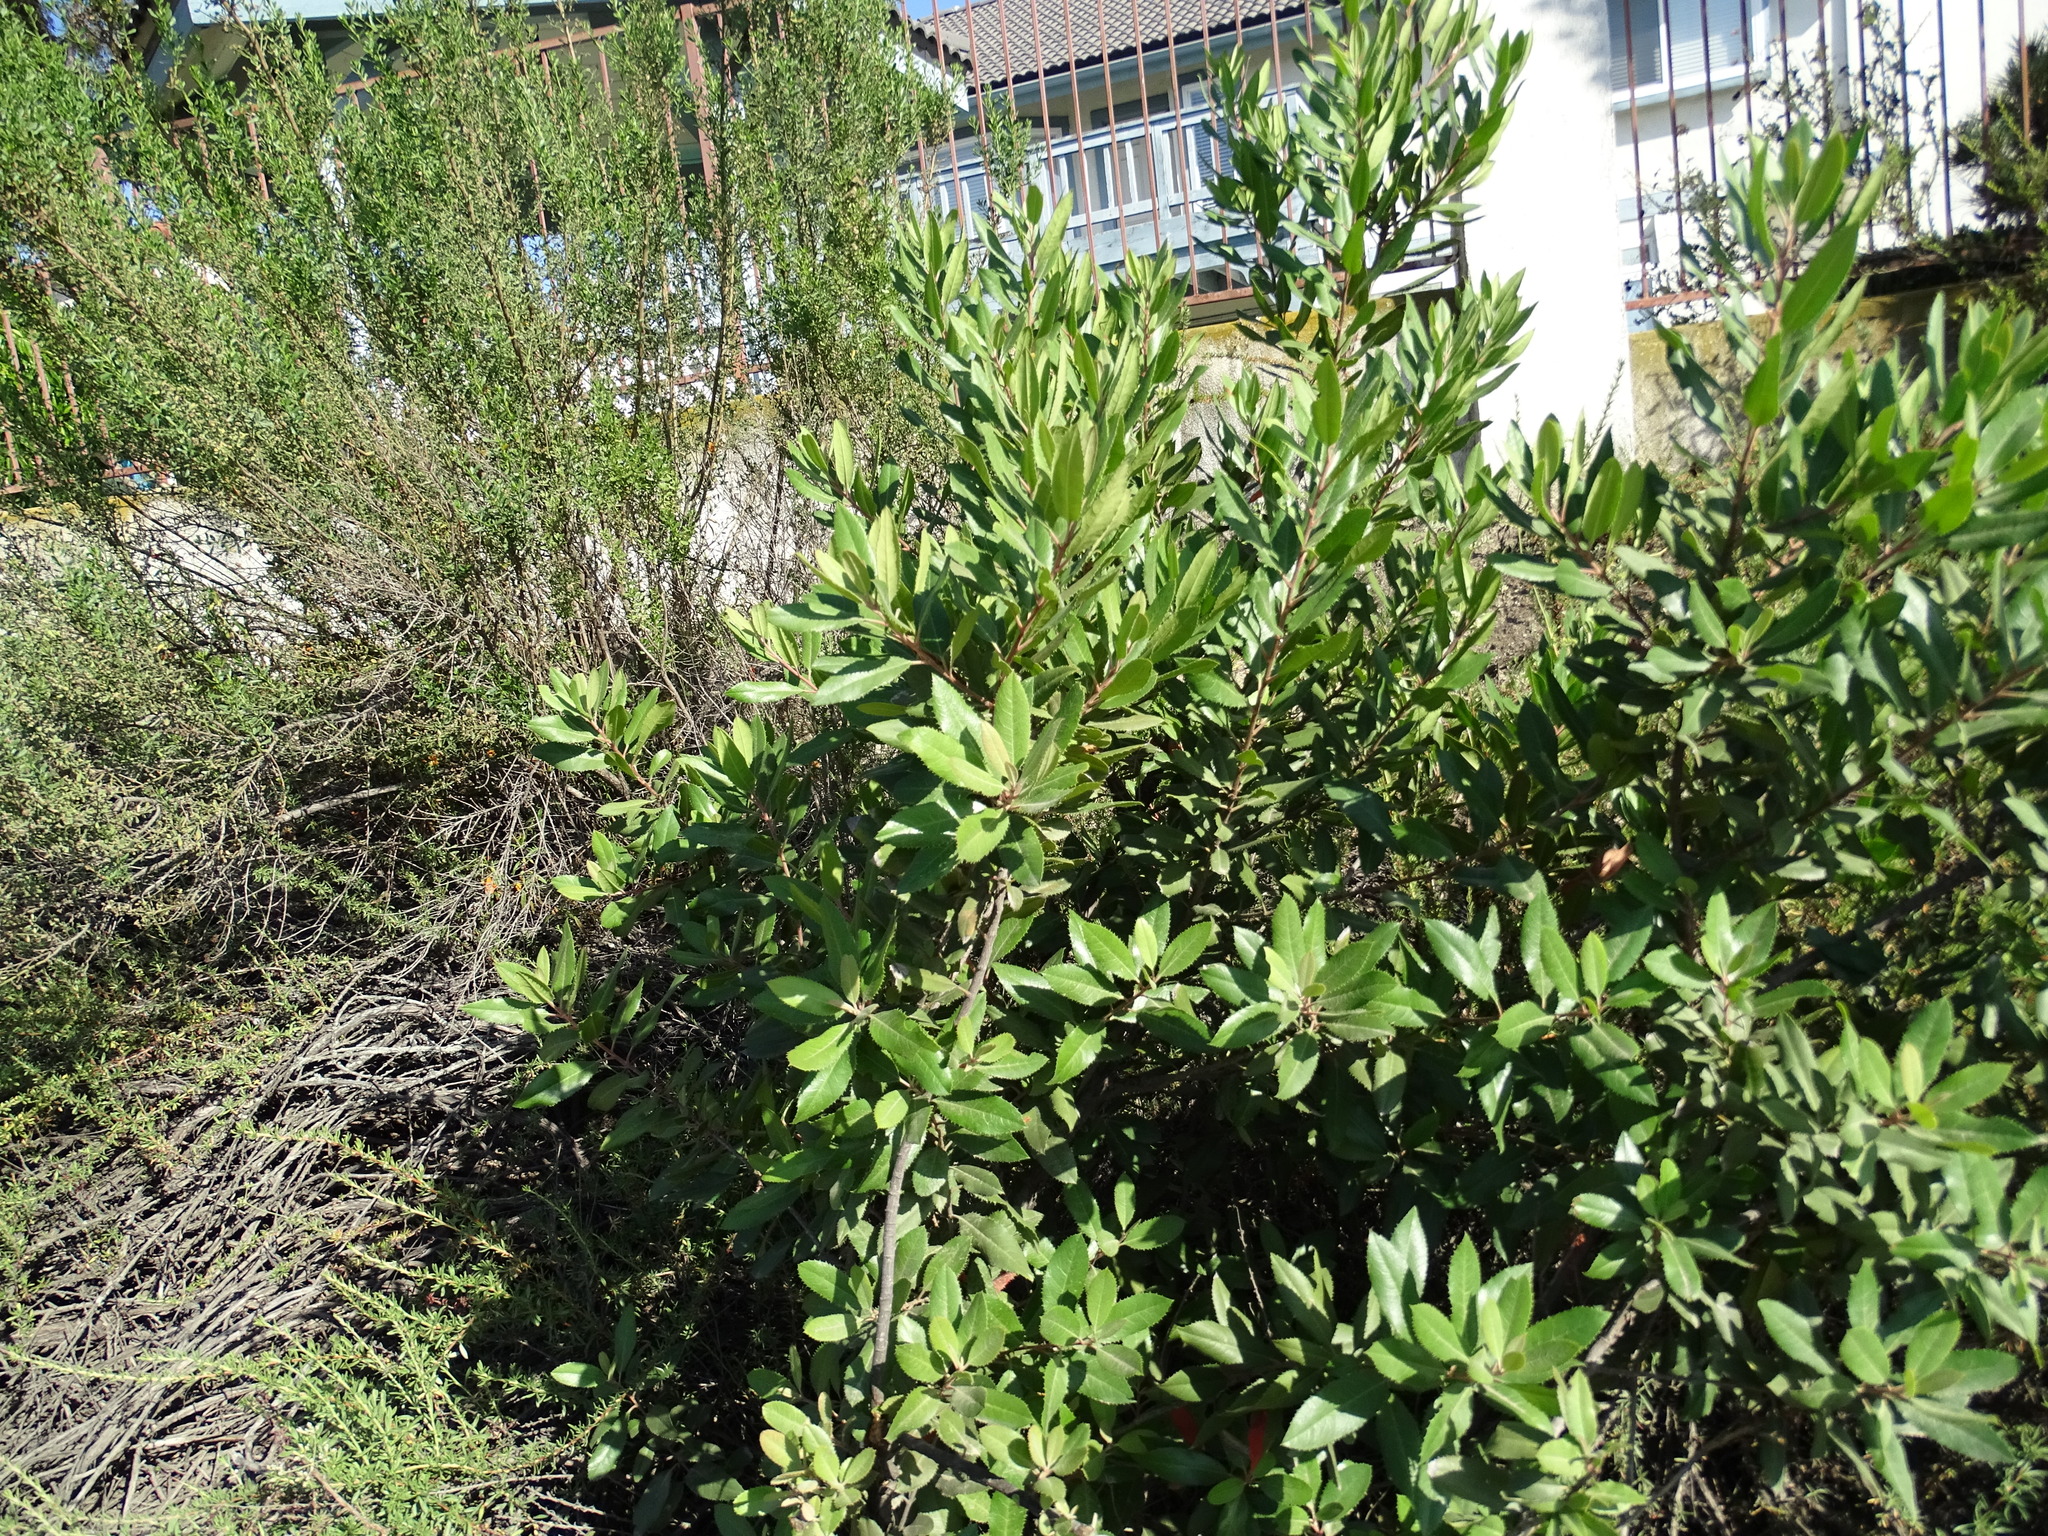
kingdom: Plantae
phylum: Tracheophyta
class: Magnoliopsida
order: Rosales
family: Rosaceae
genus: Heteromeles
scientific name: Heteromeles arbutifolia
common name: California-holly
